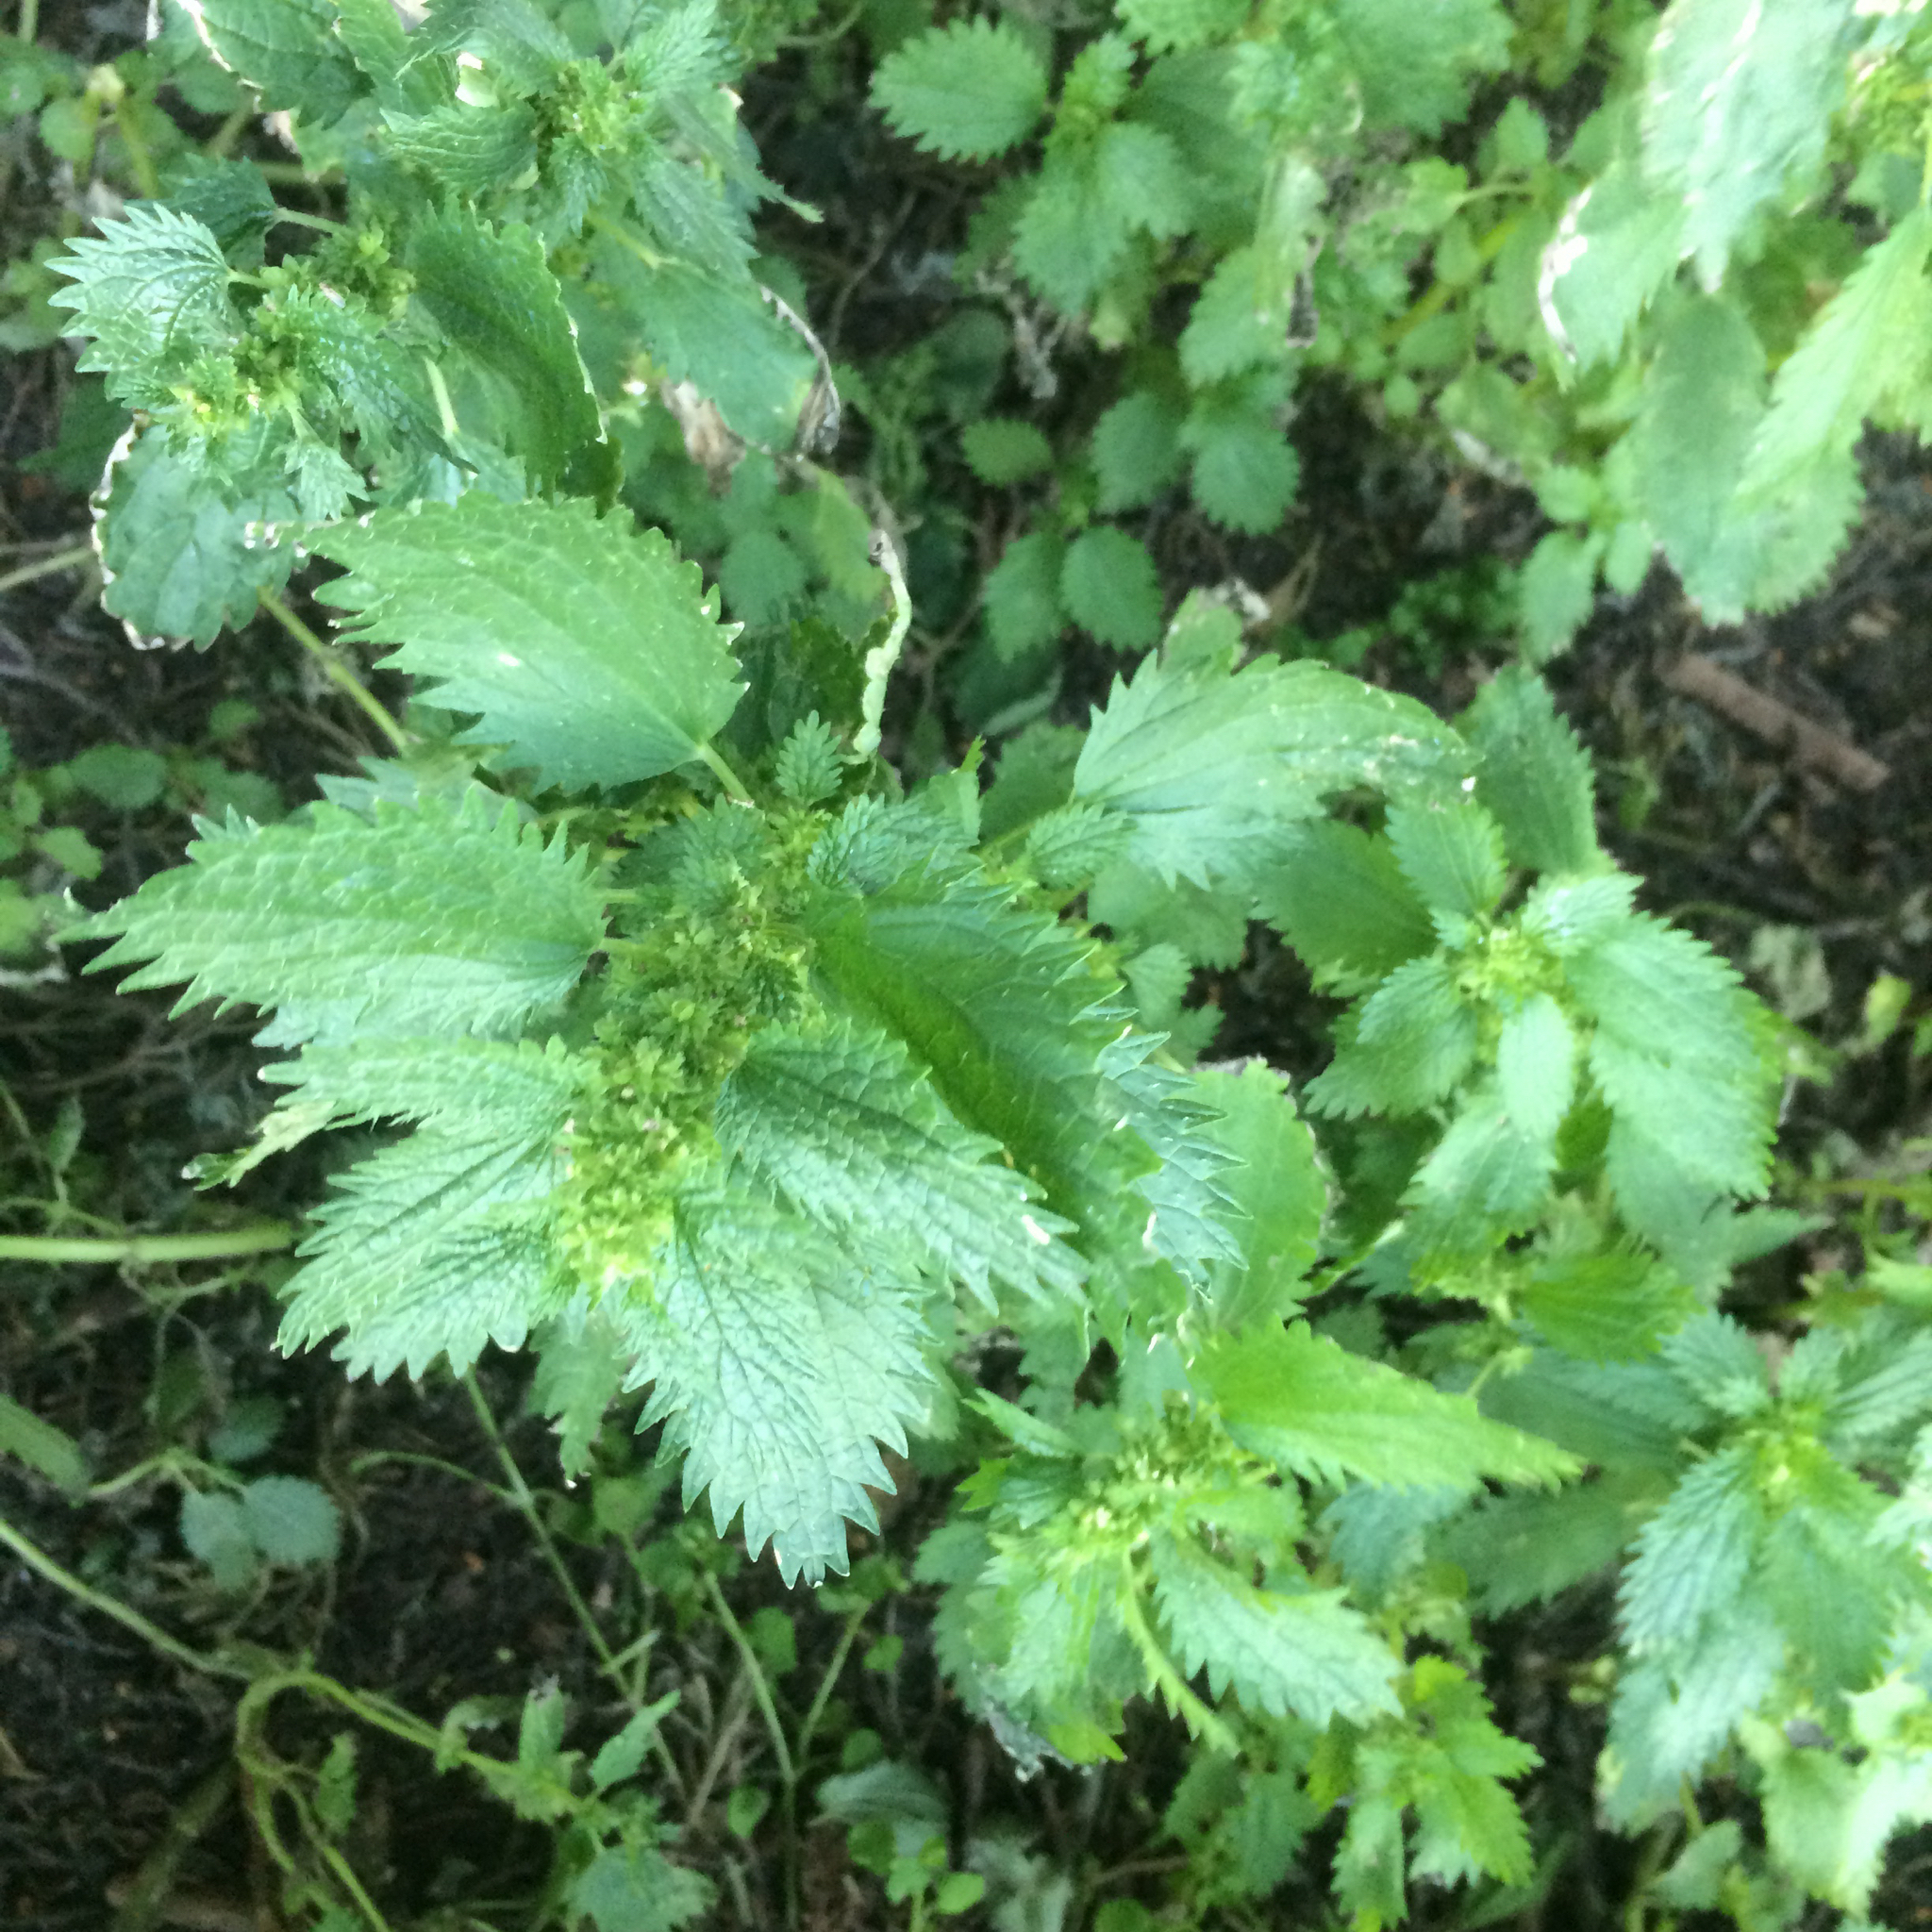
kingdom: Plantae
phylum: Tracheophyta
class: Magnoliopsida
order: Rosales
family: Urticaceae
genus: Urtica
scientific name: Urtica urens
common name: Dwarf nettle
